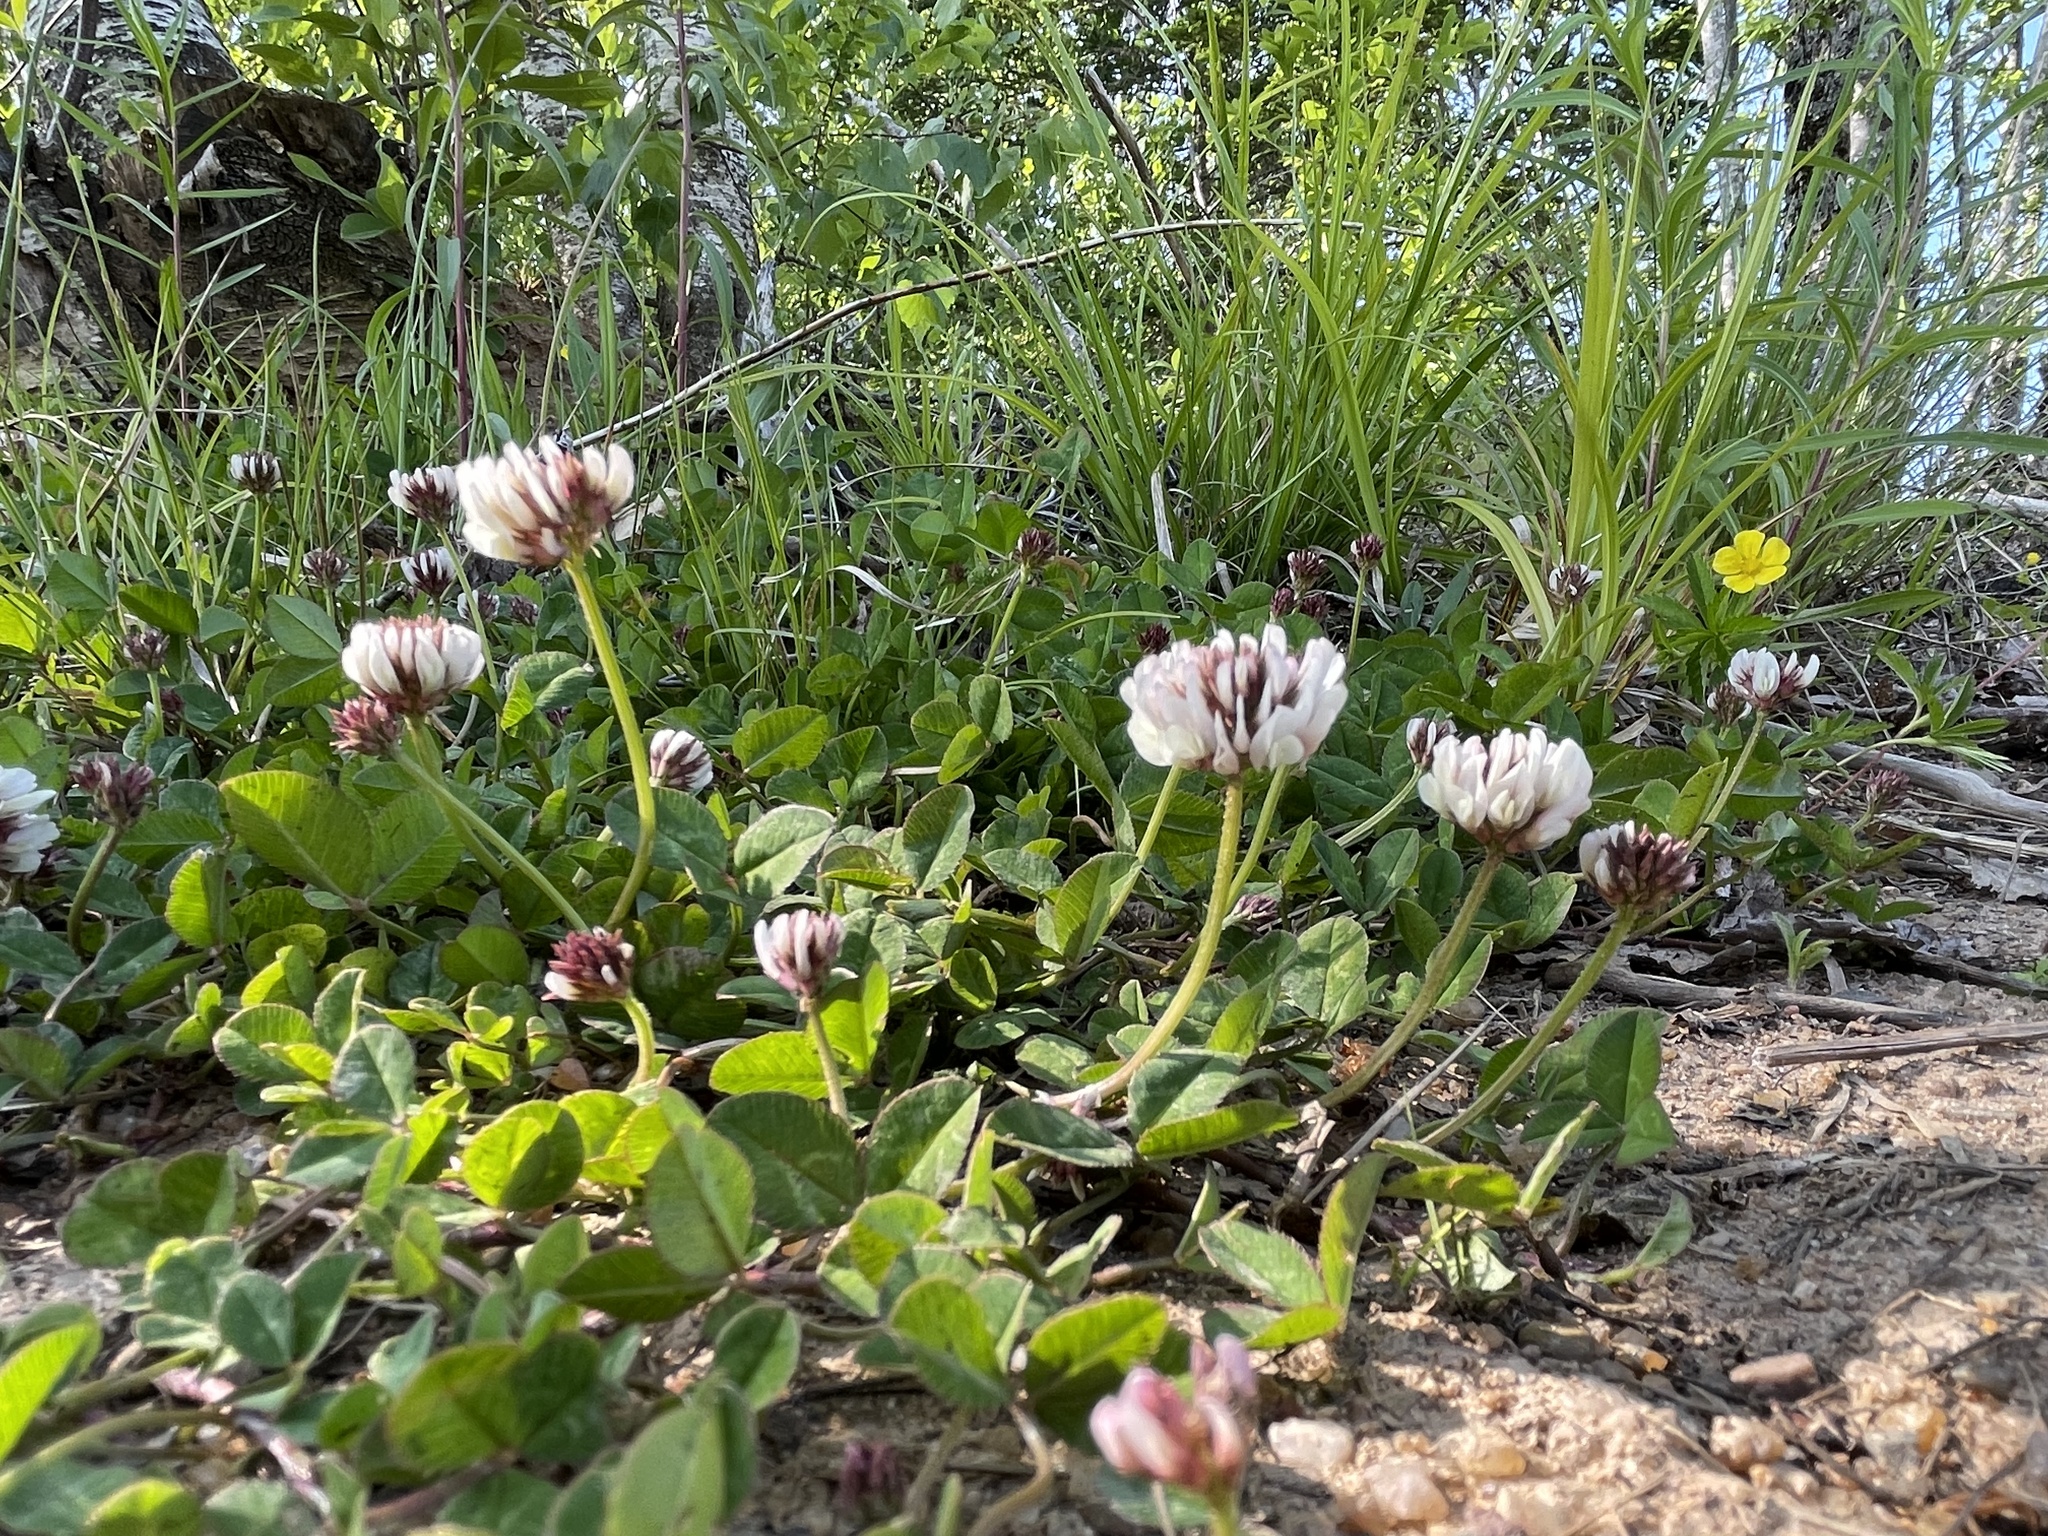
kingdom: Plantae
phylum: Tracheophyta
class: Magnoliopsida
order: Fabales
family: Fabaceae
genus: Trifolium
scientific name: Trifolium repens
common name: White clover
